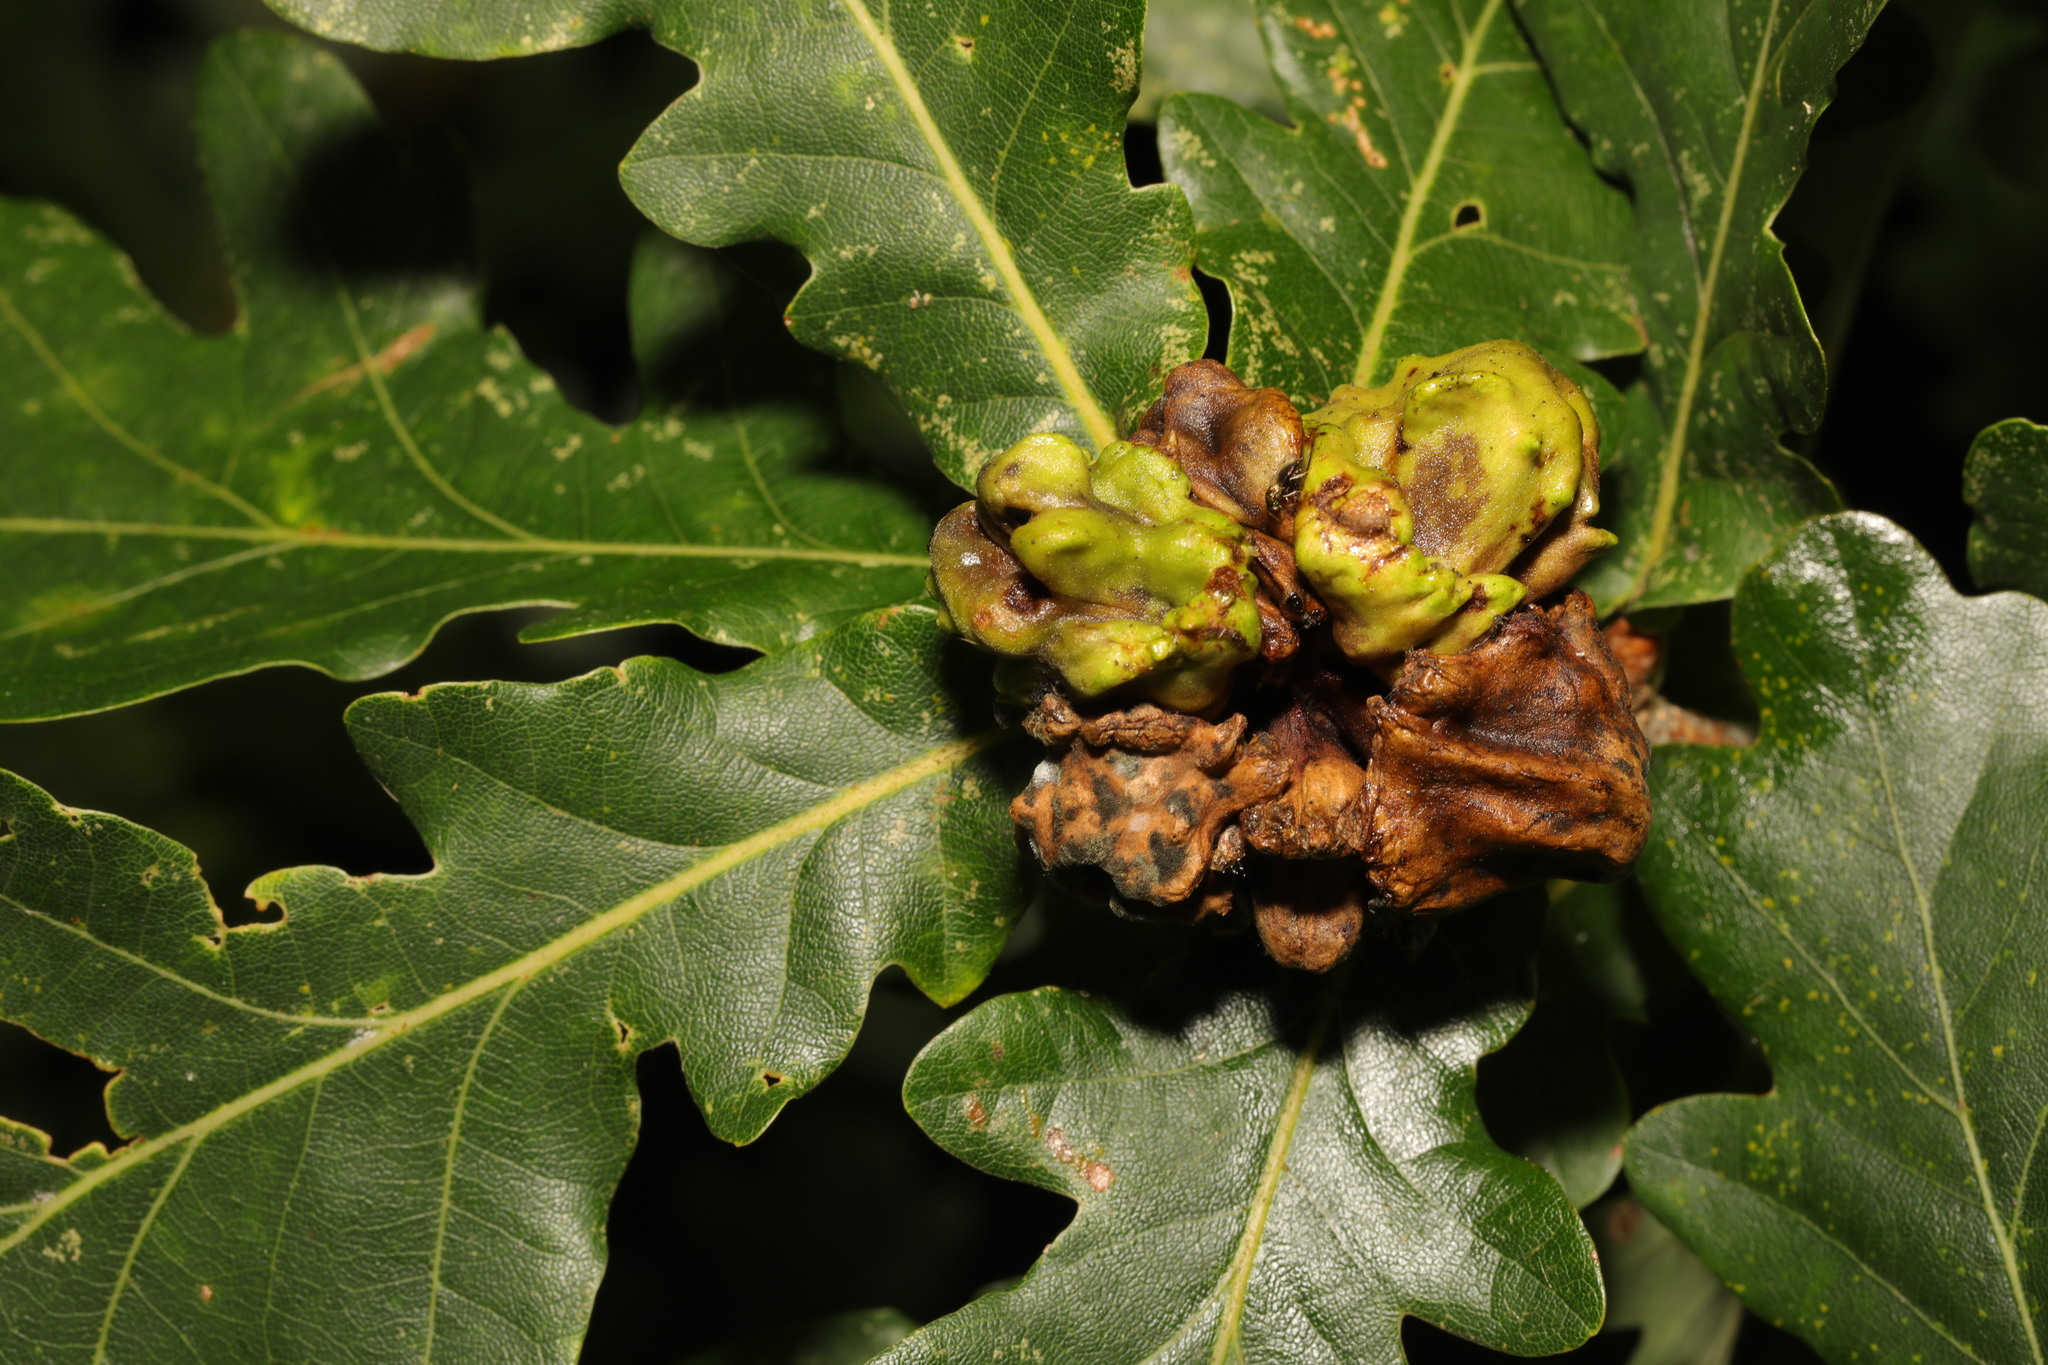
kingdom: Animalia
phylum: Arthropoda
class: Insecta
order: Hymenoptera
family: Cynipidae
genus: Andricus
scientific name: Andricus quercuscalicis
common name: Knopper gall
